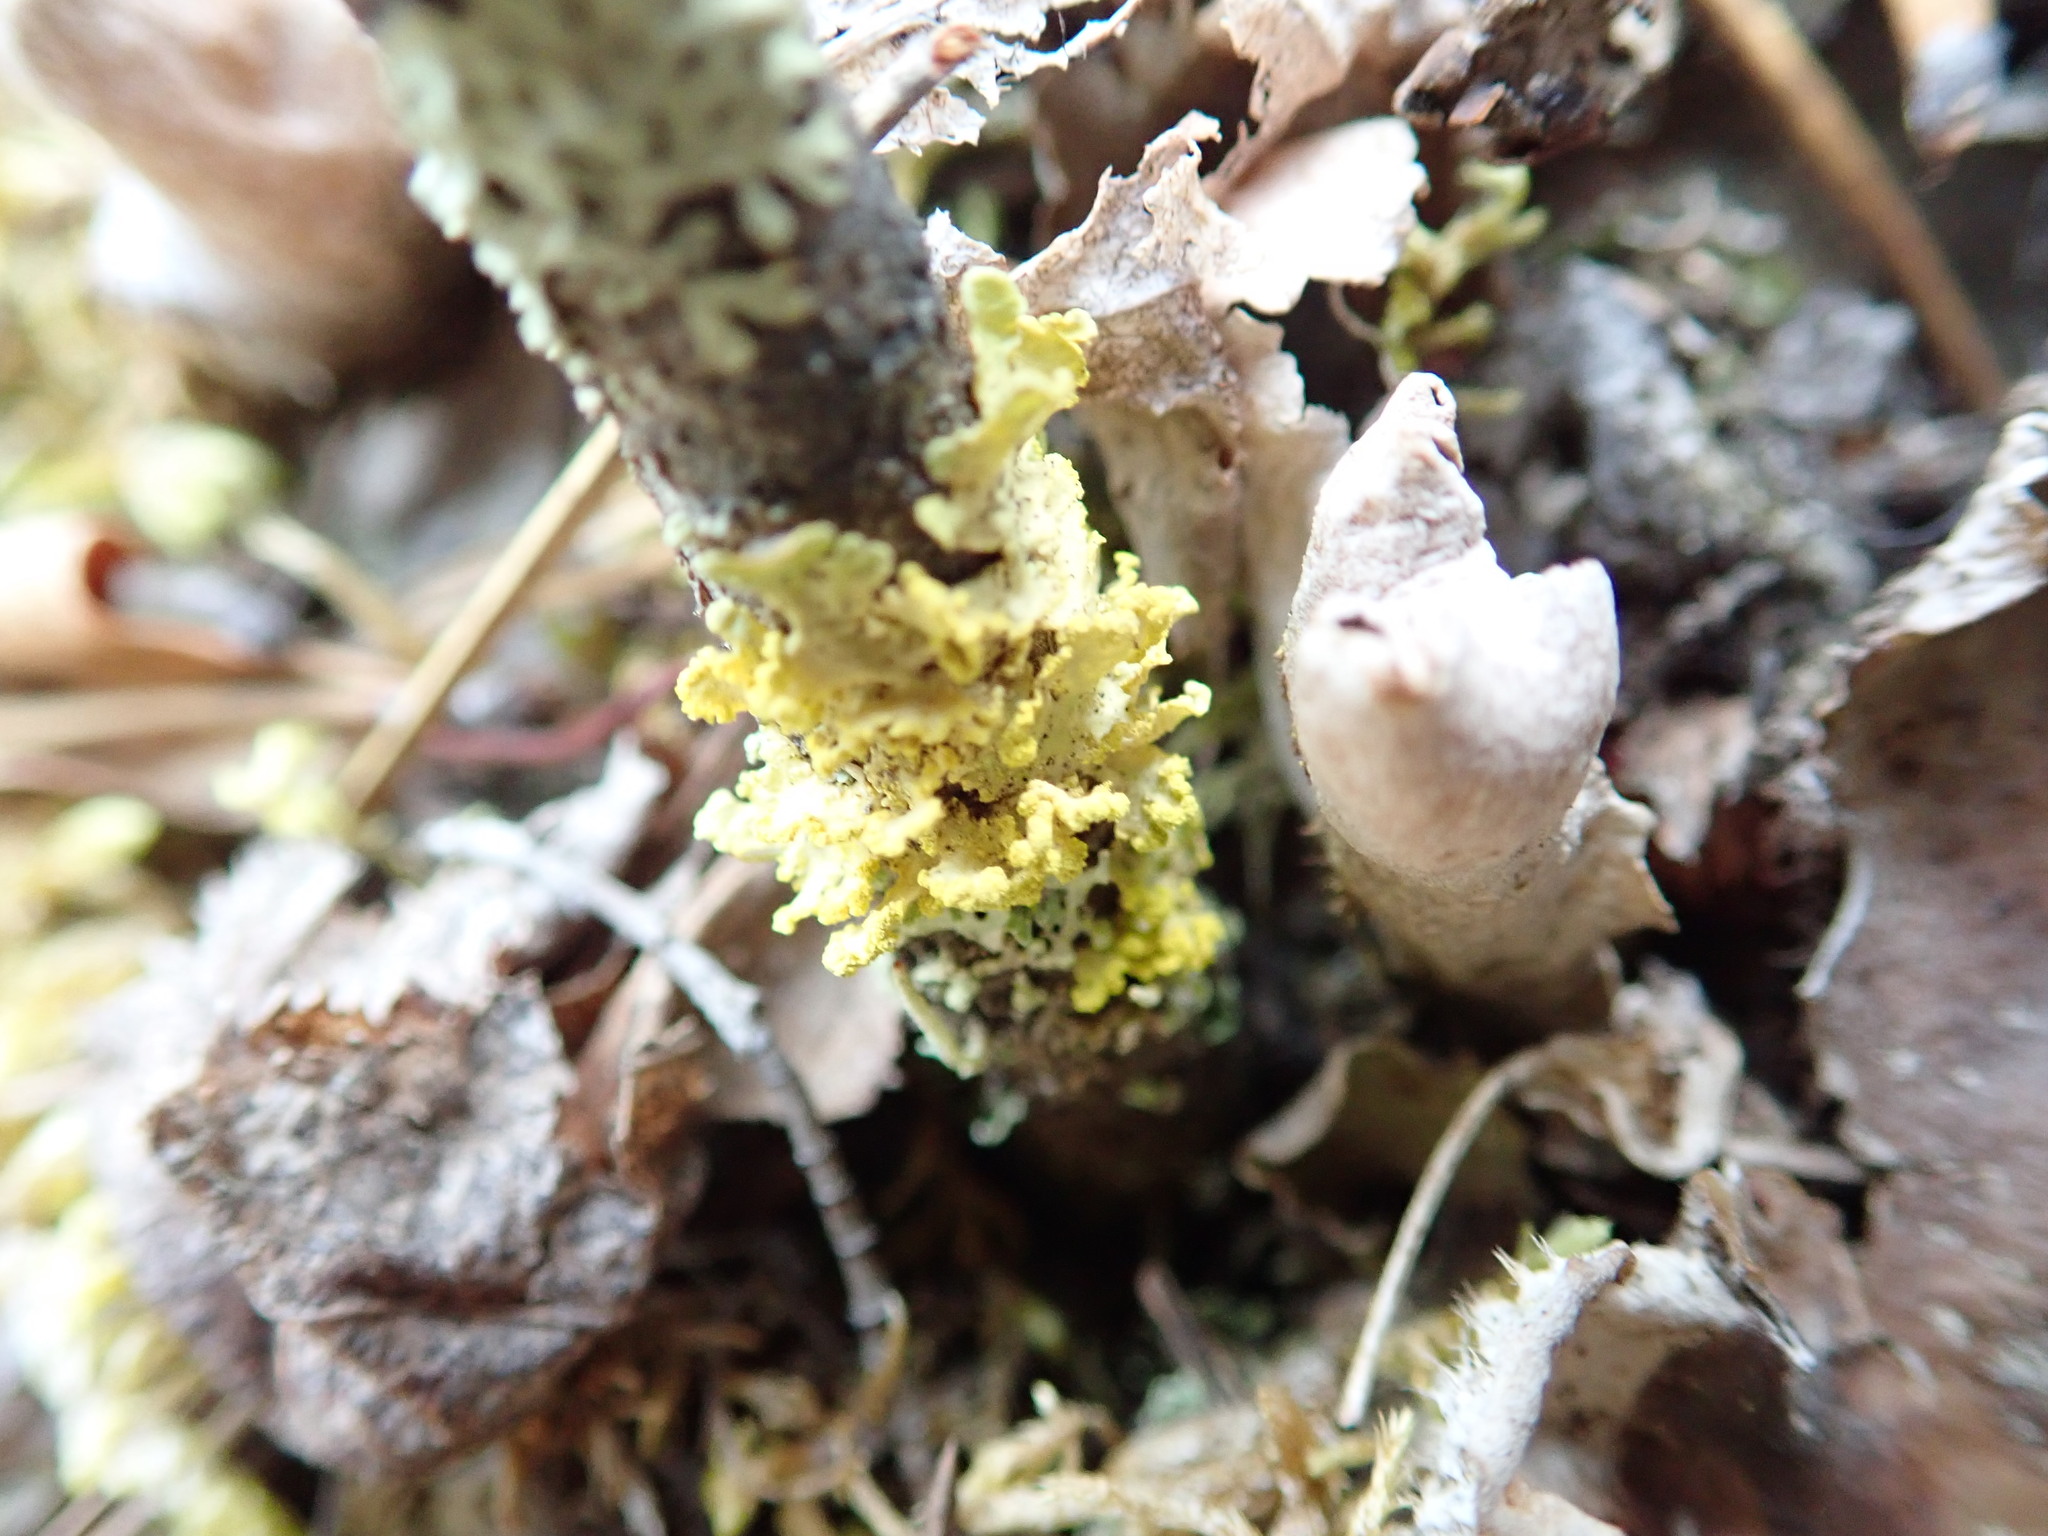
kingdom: Fungi
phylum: Ascomycota
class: Lecanoromycetes
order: Lecanorales
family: Parmeliaceae
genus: Vulpicida
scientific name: Vulpicida pinastri
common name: Powdered sunshine lichen
